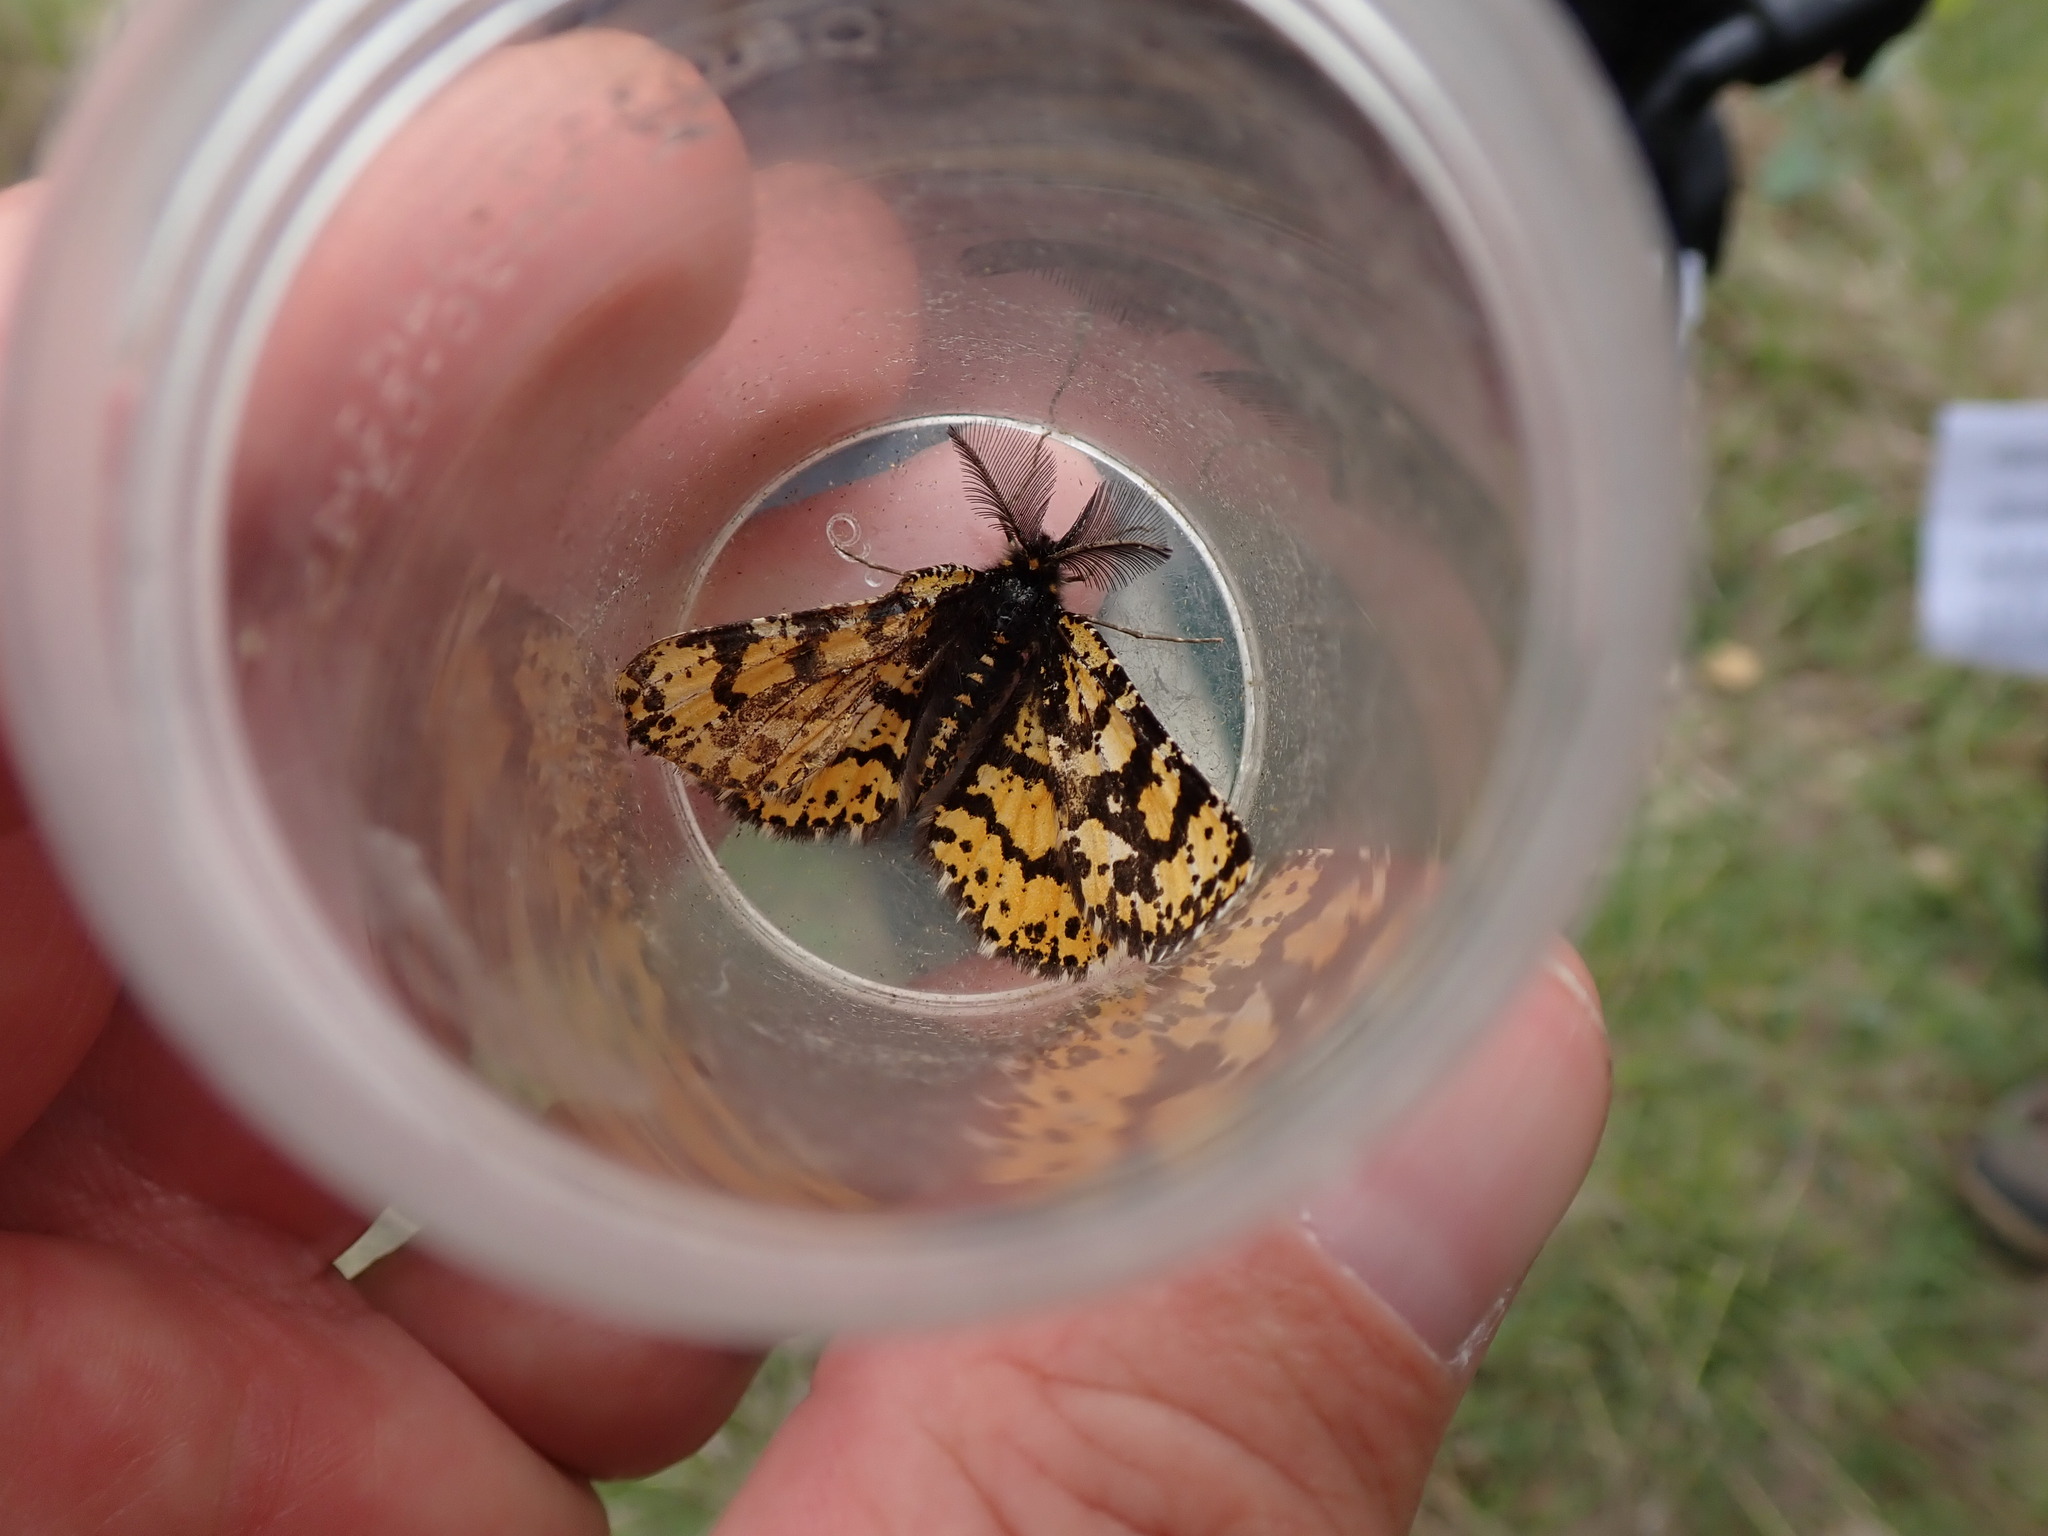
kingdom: Animalia
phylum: Arthropoda
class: Insecta
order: Lepidoptera
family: Geometridae
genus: Eurranthis
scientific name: Eurranthis plummistaria
